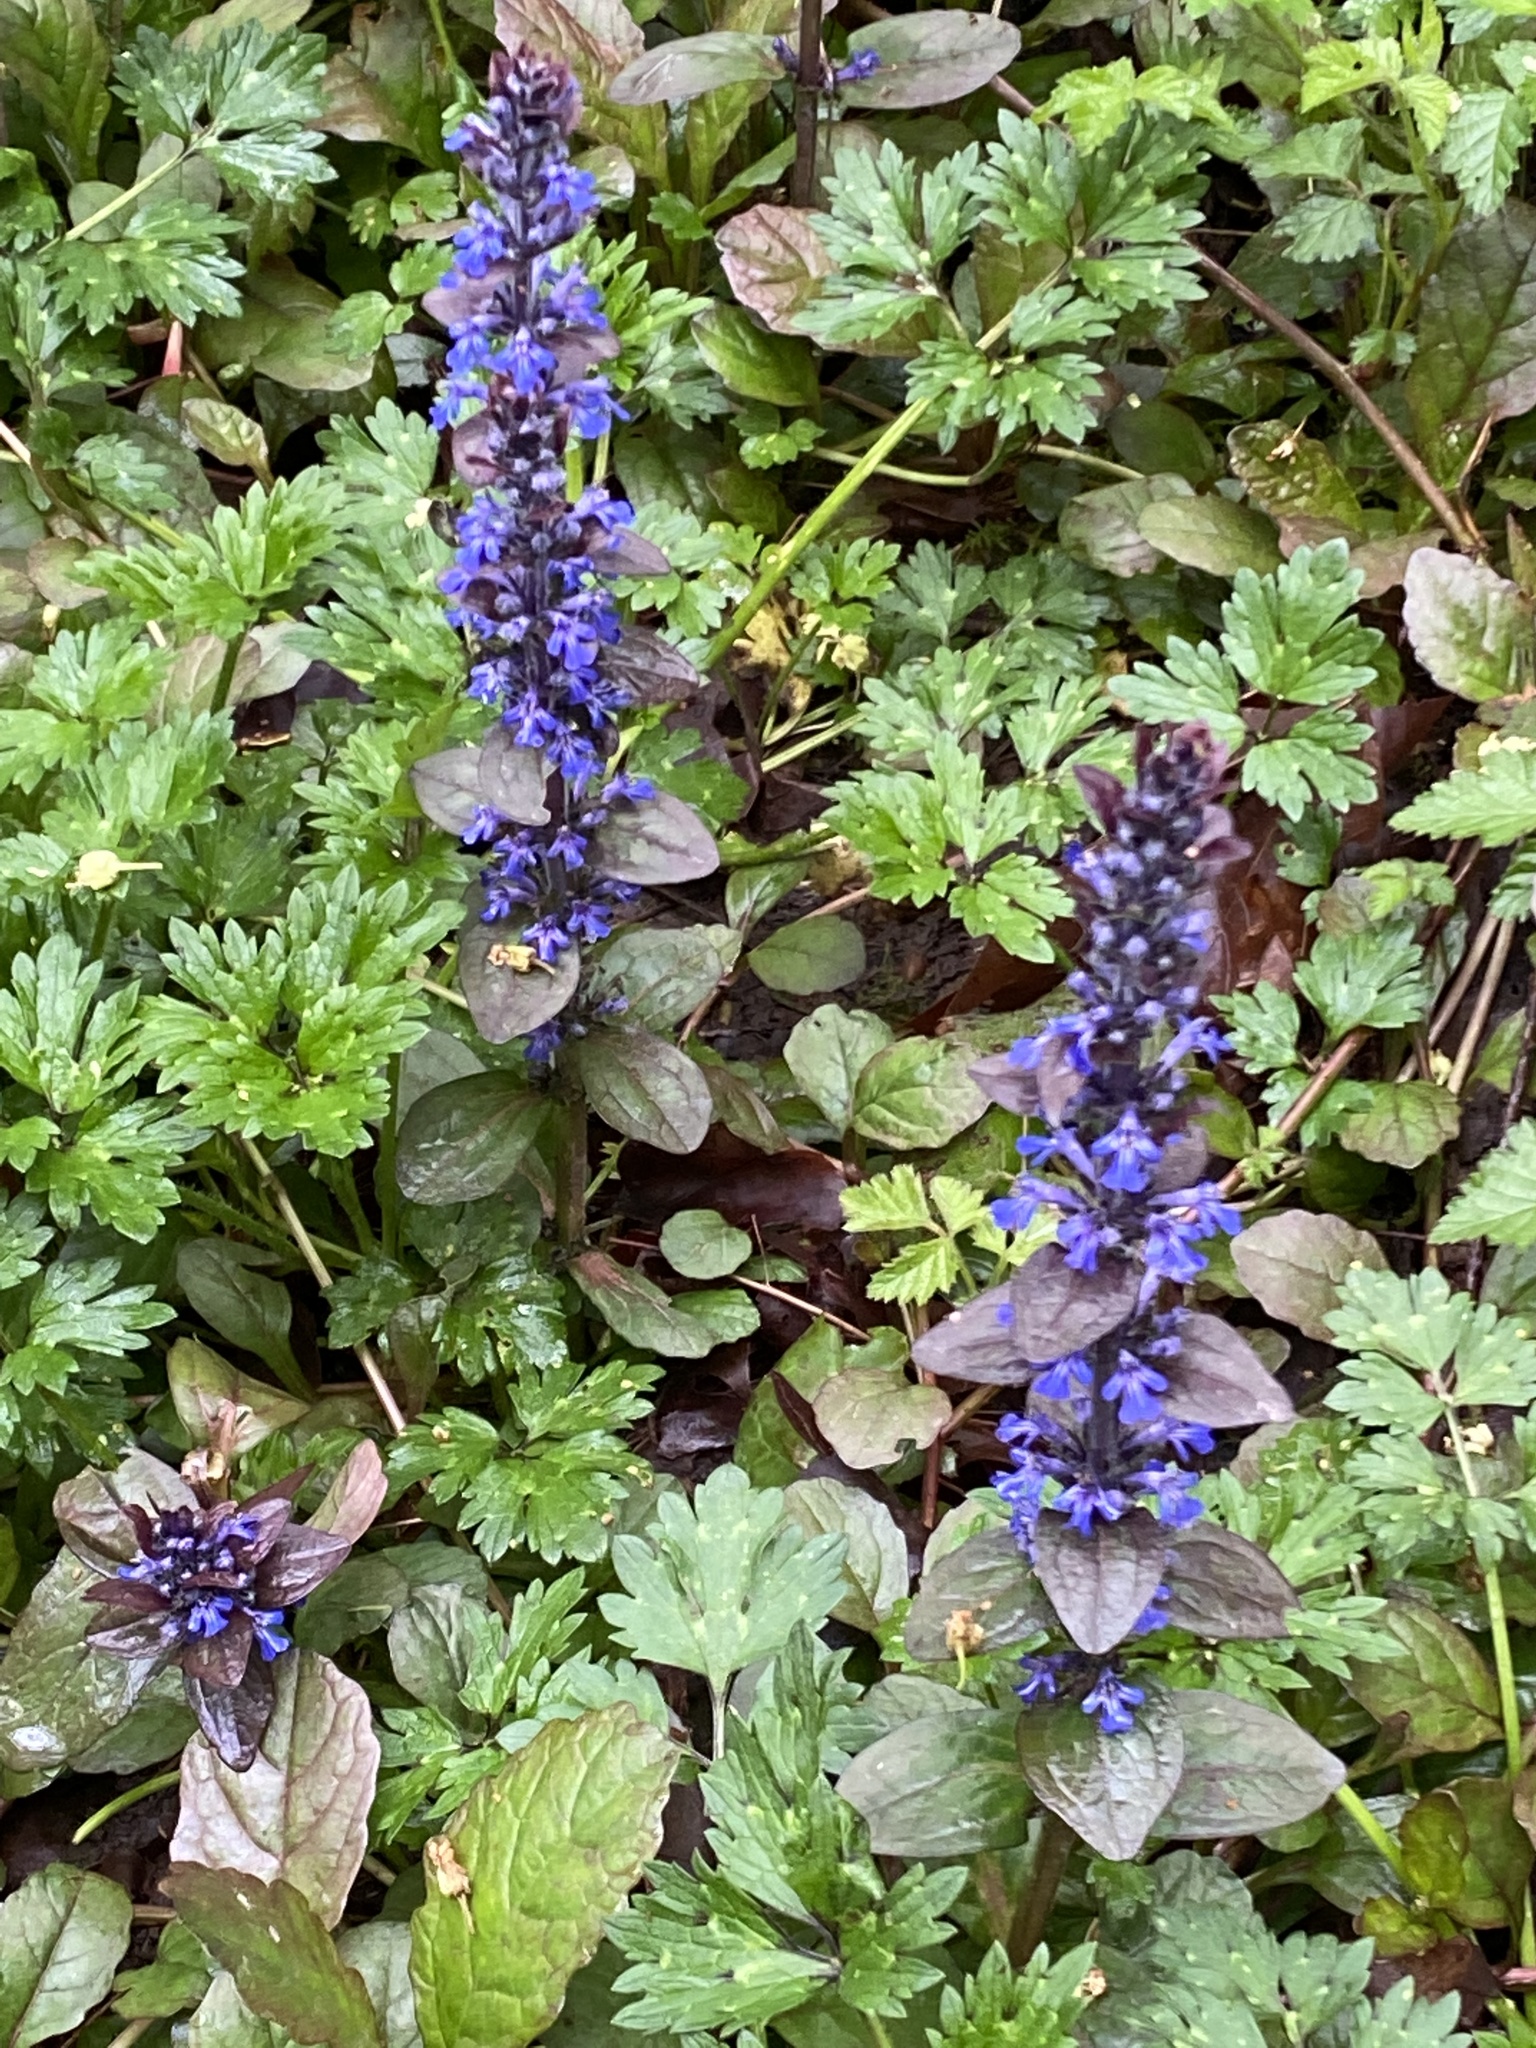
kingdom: Plantae
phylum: Tracheophyta
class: Magnoliopsida
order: Lamiales
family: Lamiaceae
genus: Ajuga
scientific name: Ajuga reptans
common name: Bugle
